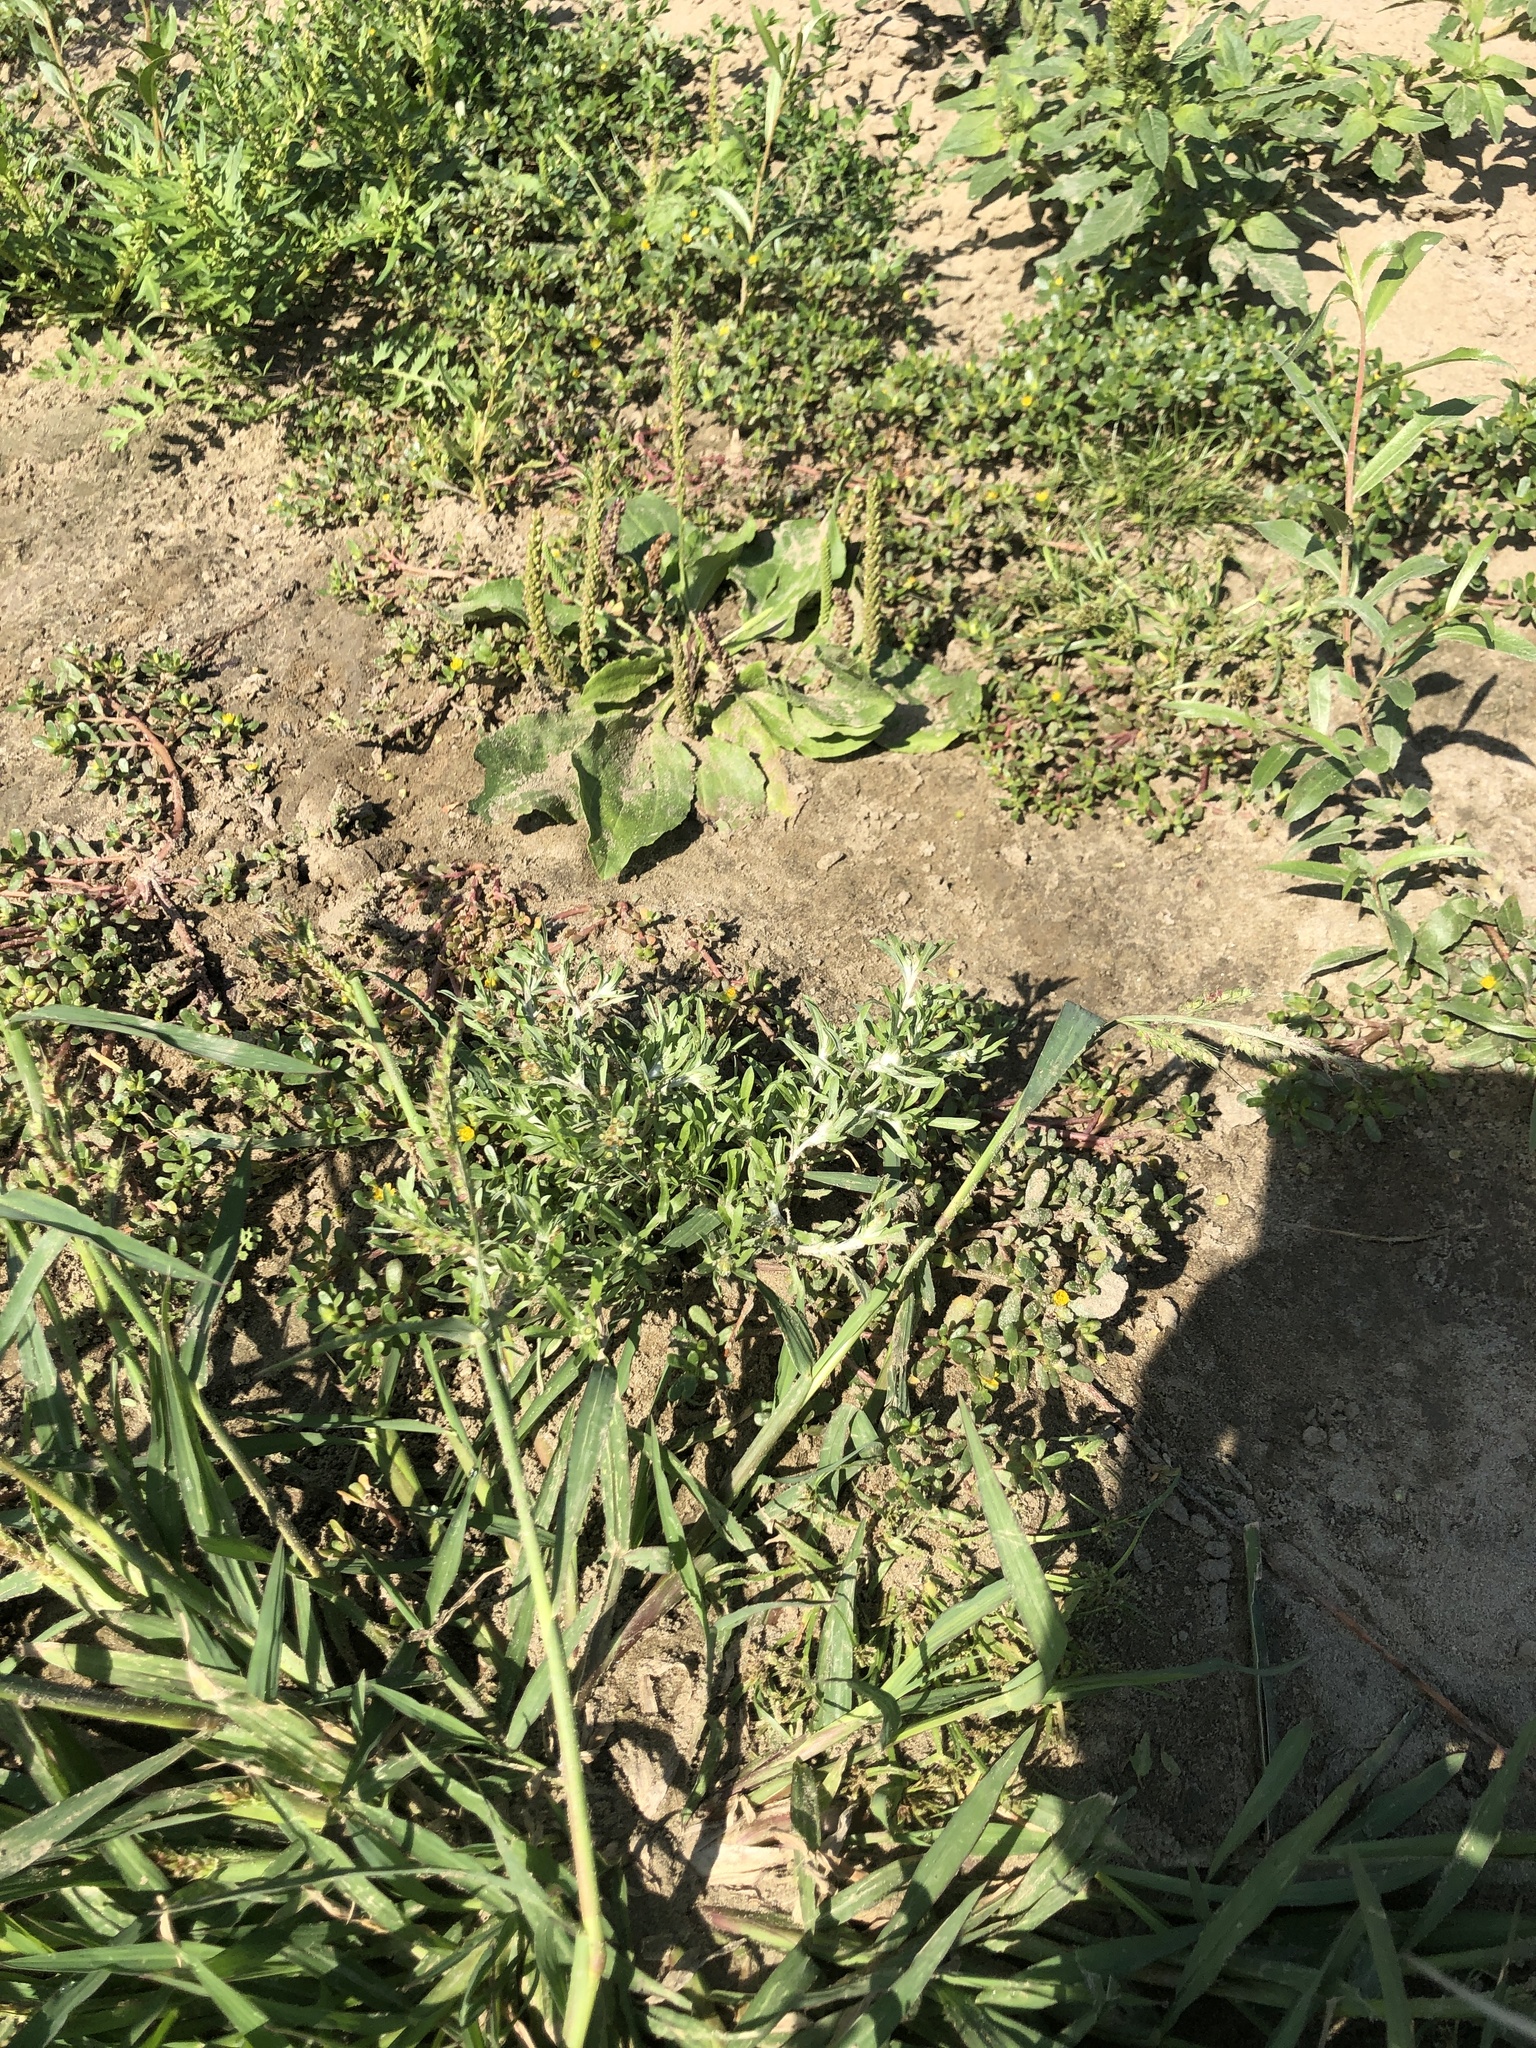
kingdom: Plantae
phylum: Tracheophyta
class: Magnoliopsida
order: Asterales
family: Asteraceae
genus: Gnaphalium
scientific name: Gnaphalium uliginosum
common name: Marsh cudweed
